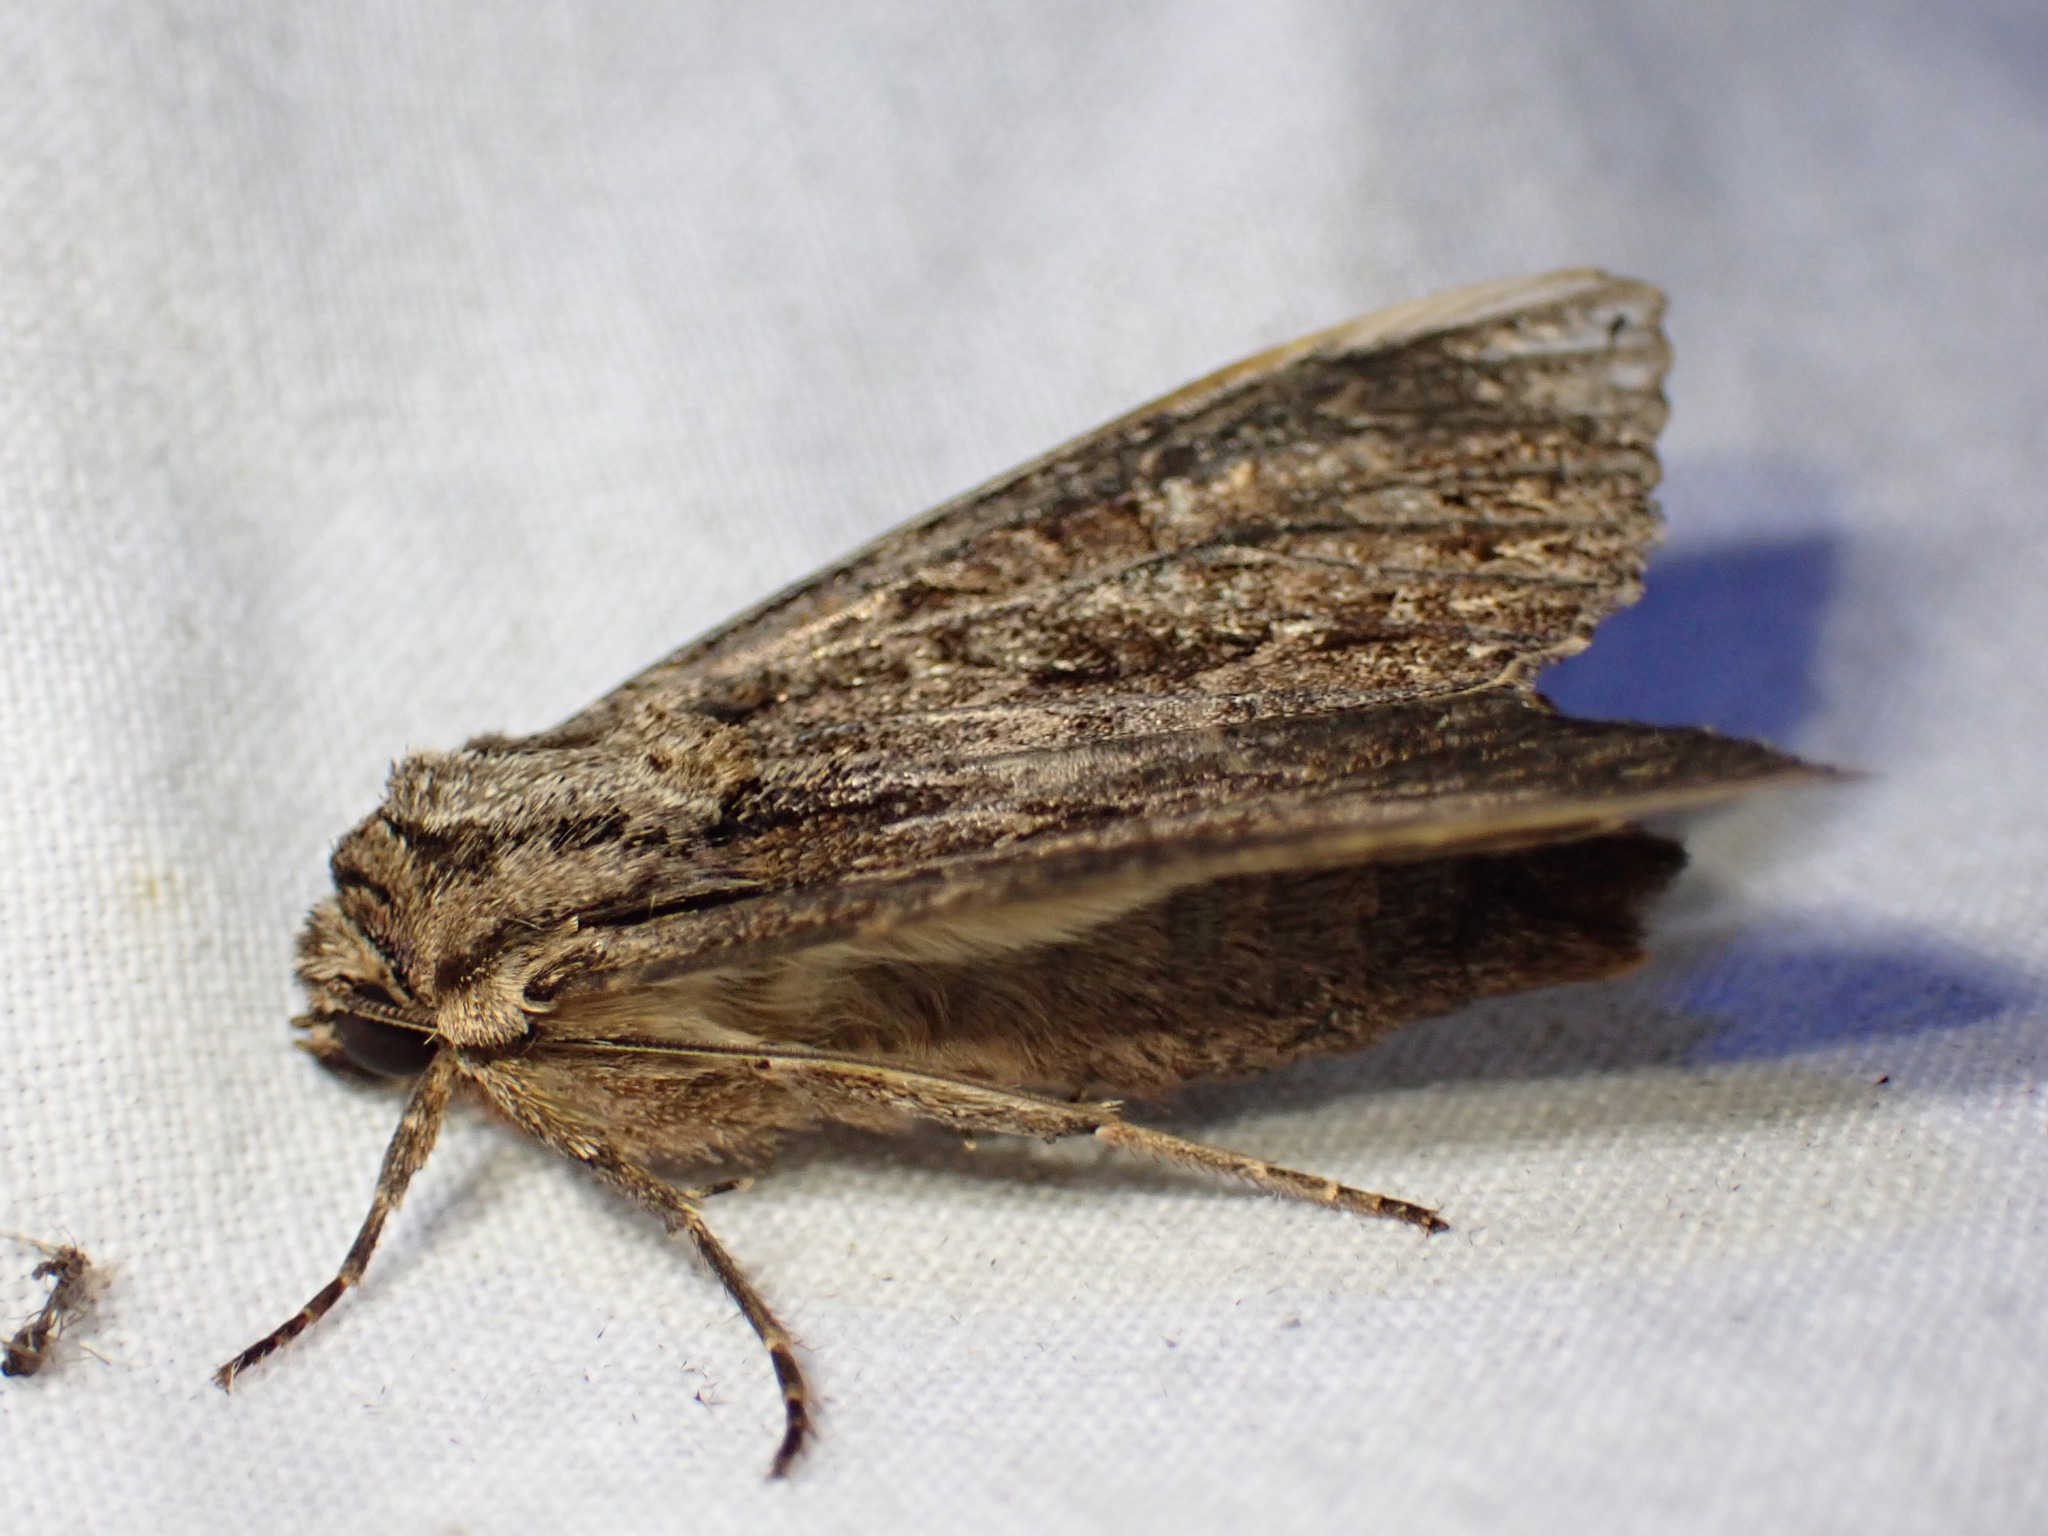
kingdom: Animalia
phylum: Arthropoda
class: Insecta
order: Lepidoptera
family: Noctuidae
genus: Apamea
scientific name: Apamea monoglypha
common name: Dark arches
